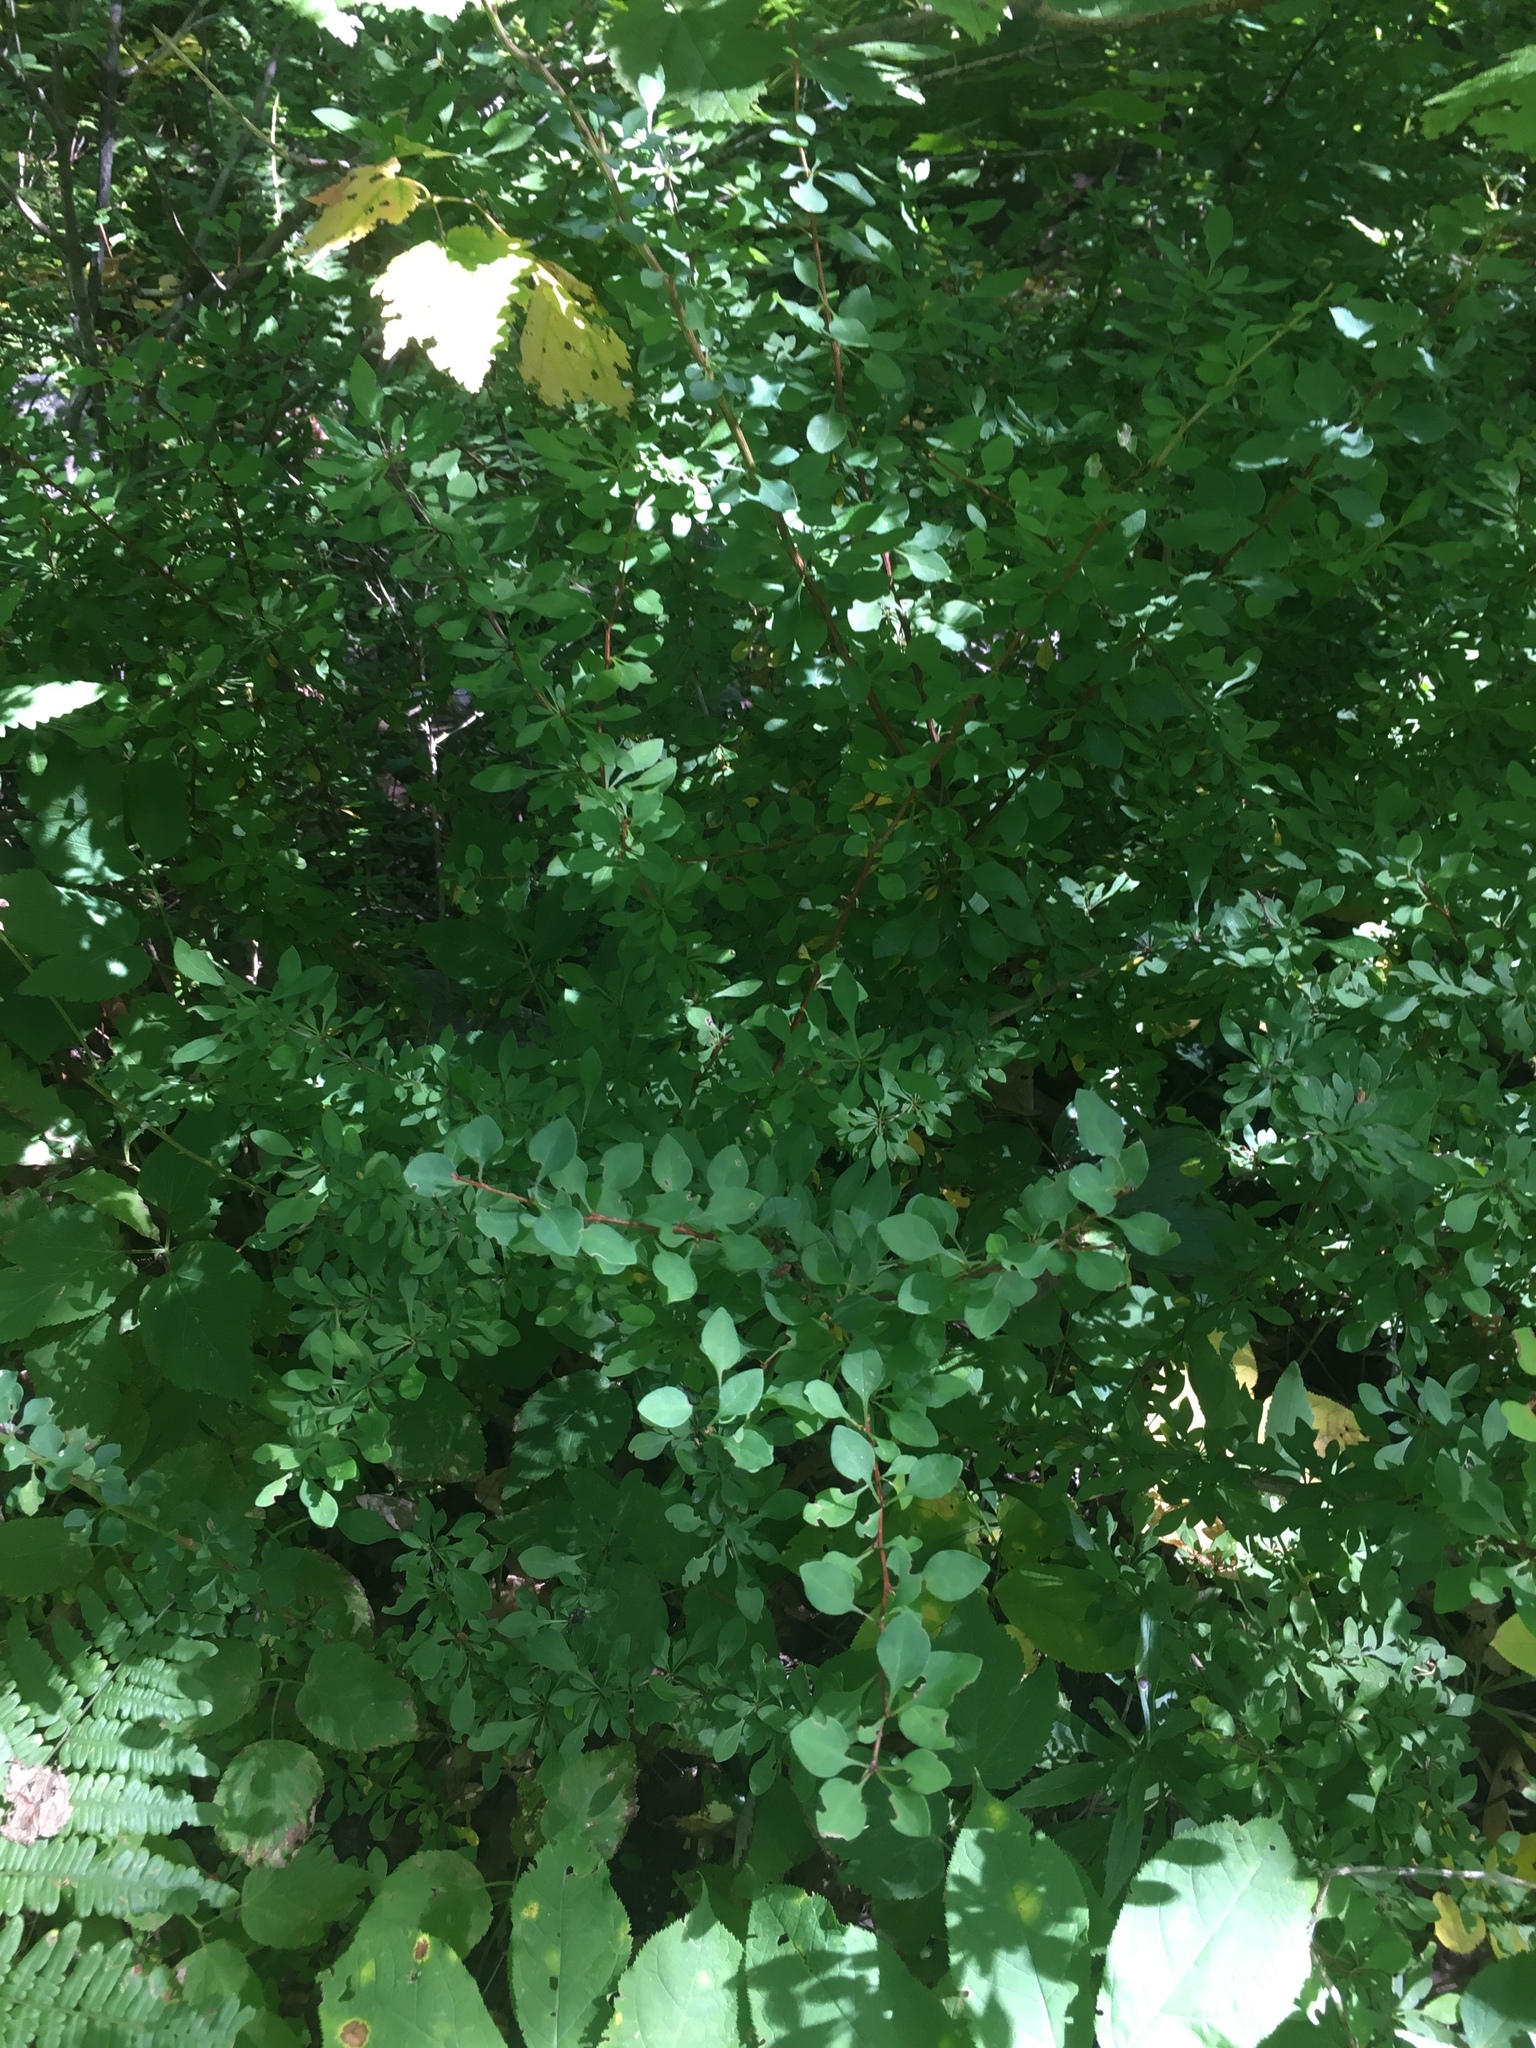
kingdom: Plantae
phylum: Tracheophyta
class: Magnoliopsida
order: Ranunculales
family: Berberidaceae
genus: Berberis
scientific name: Berberis thunbergii
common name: Japanese barberry
